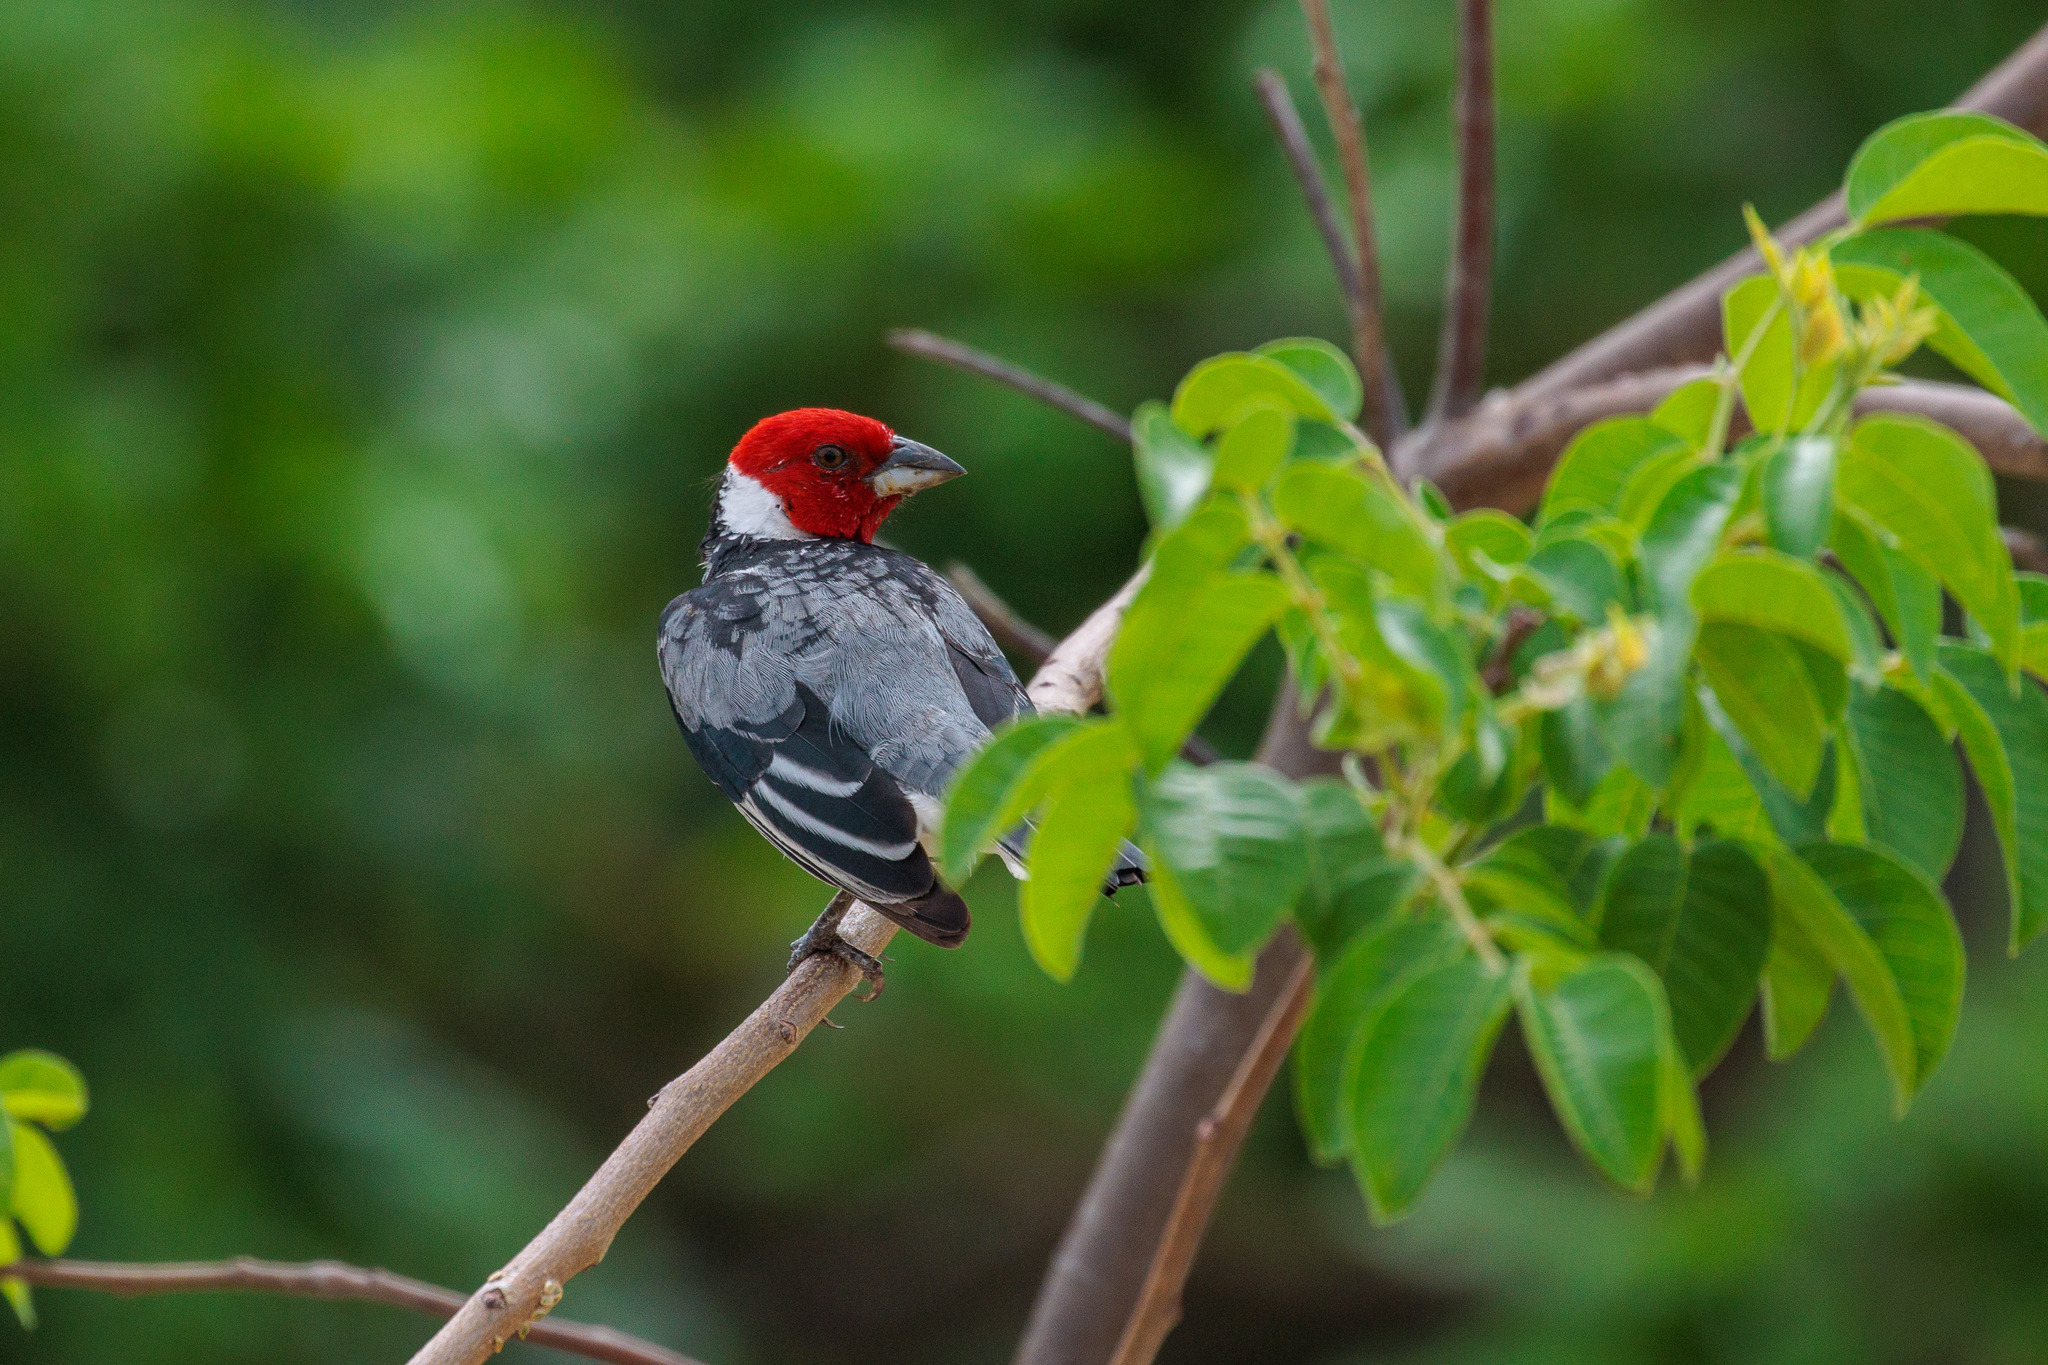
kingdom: Animalia
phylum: Chordata
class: Aves
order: Passeriformes
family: Thraupidae
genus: Paroaria
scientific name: Paroaria dominicana
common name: Red-cowled cardinal
